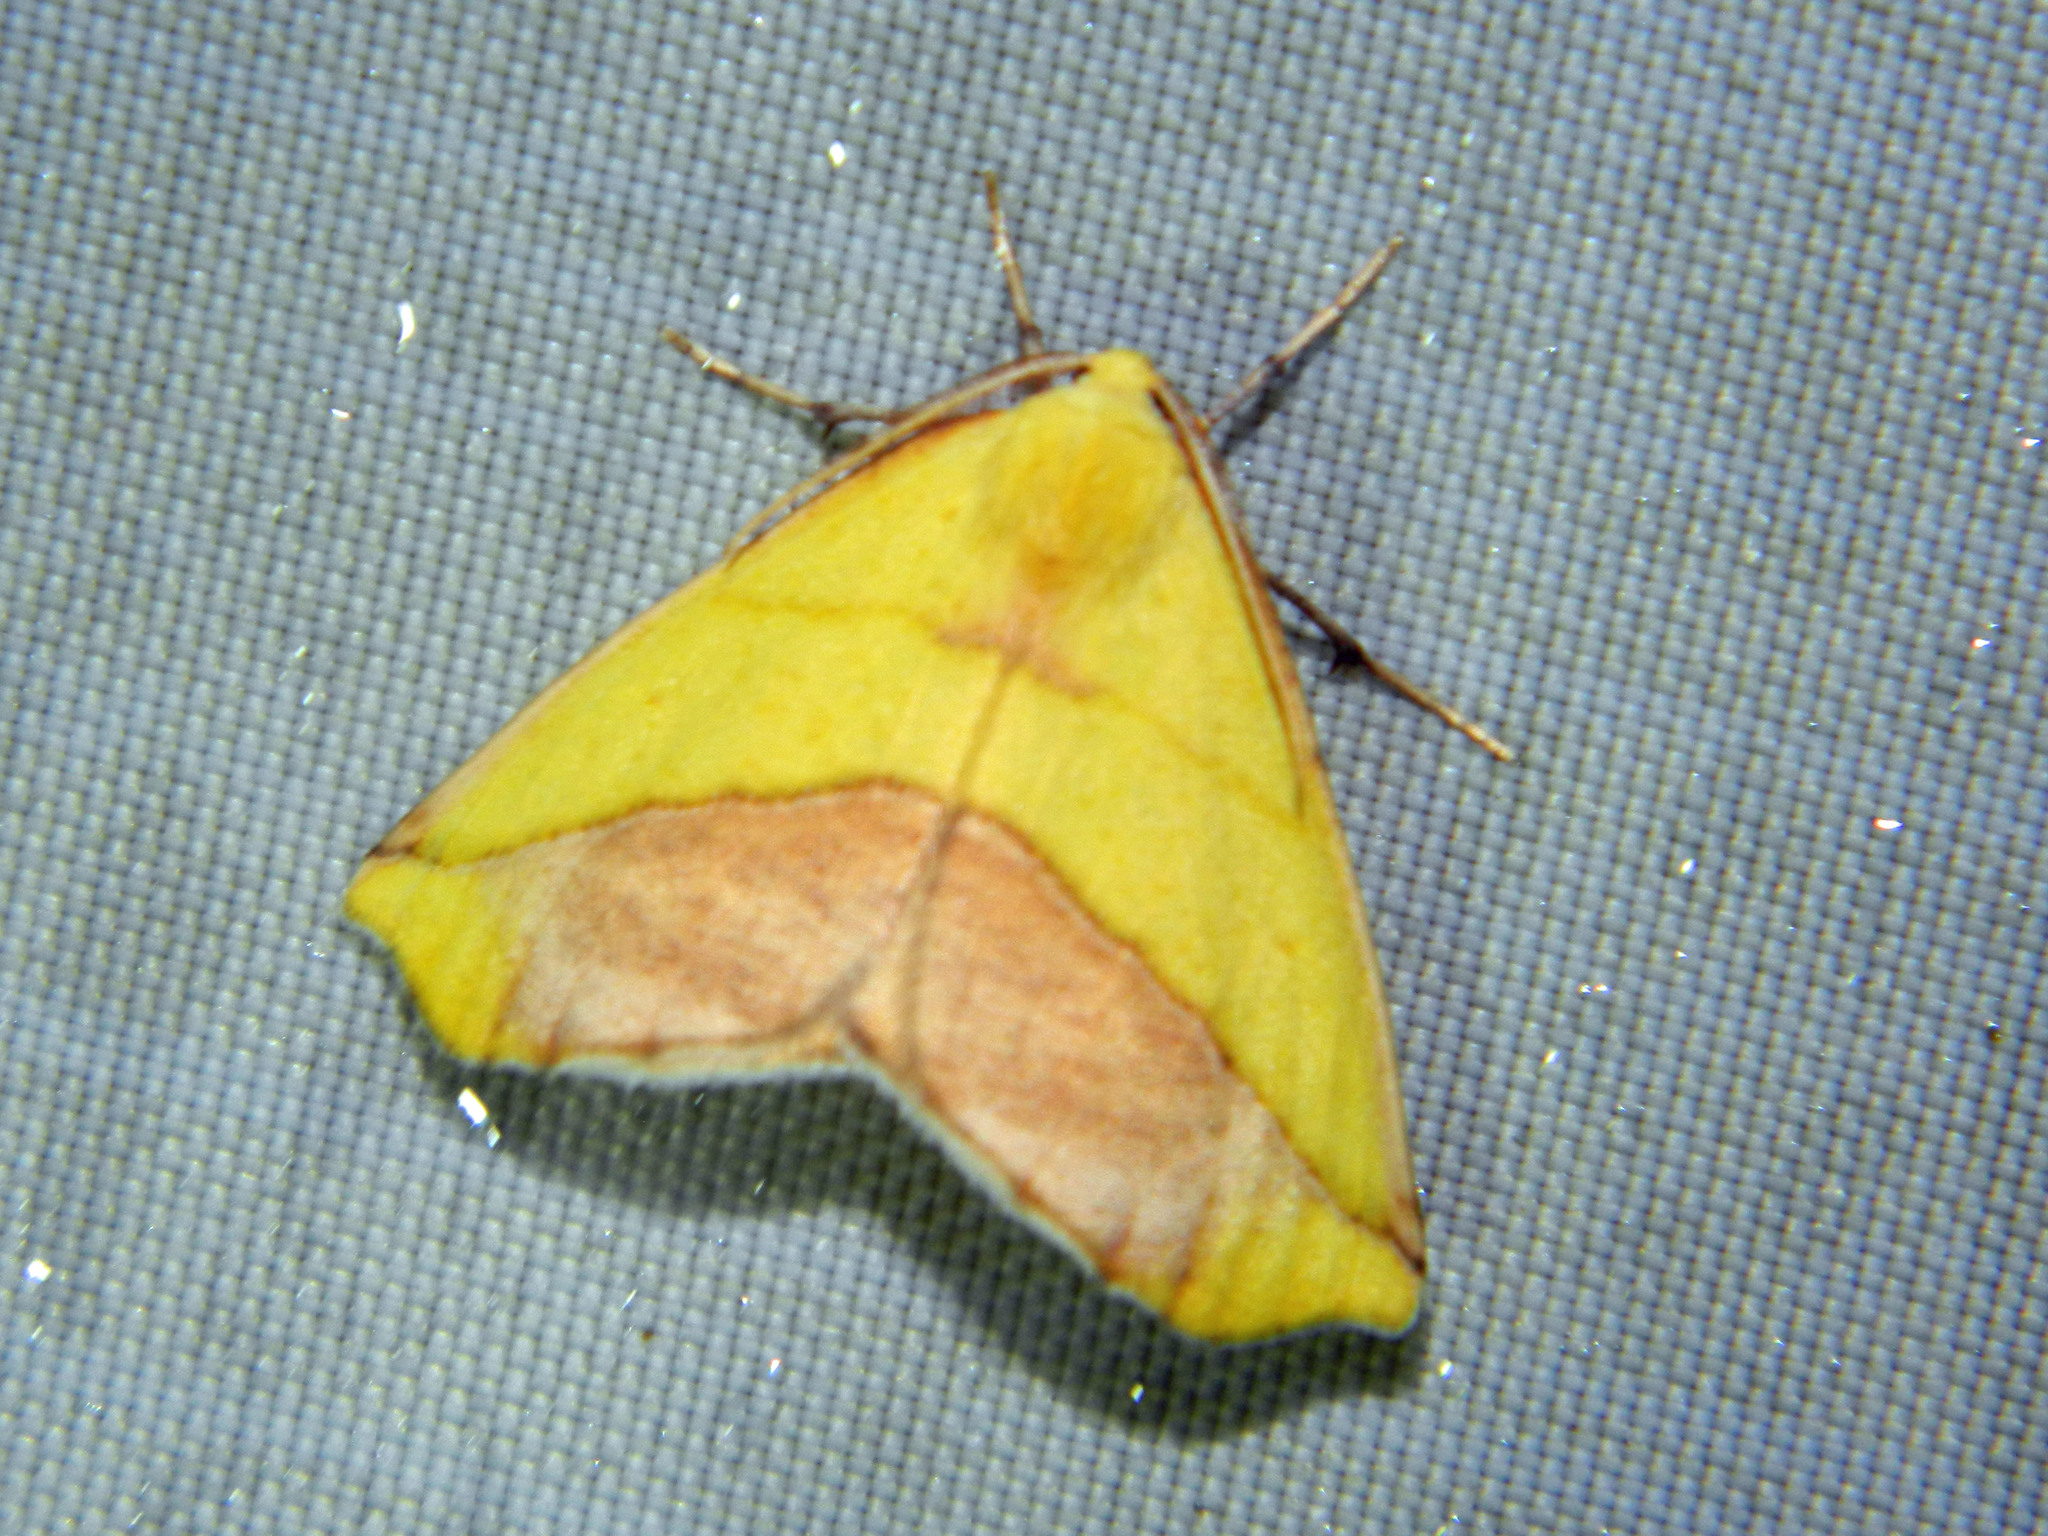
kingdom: Animalia
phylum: Arthropoda
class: Insecta
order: Lepidoptera
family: Geometridae
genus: Sicya
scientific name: Sicya macularia
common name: Sharp-lined yellow
